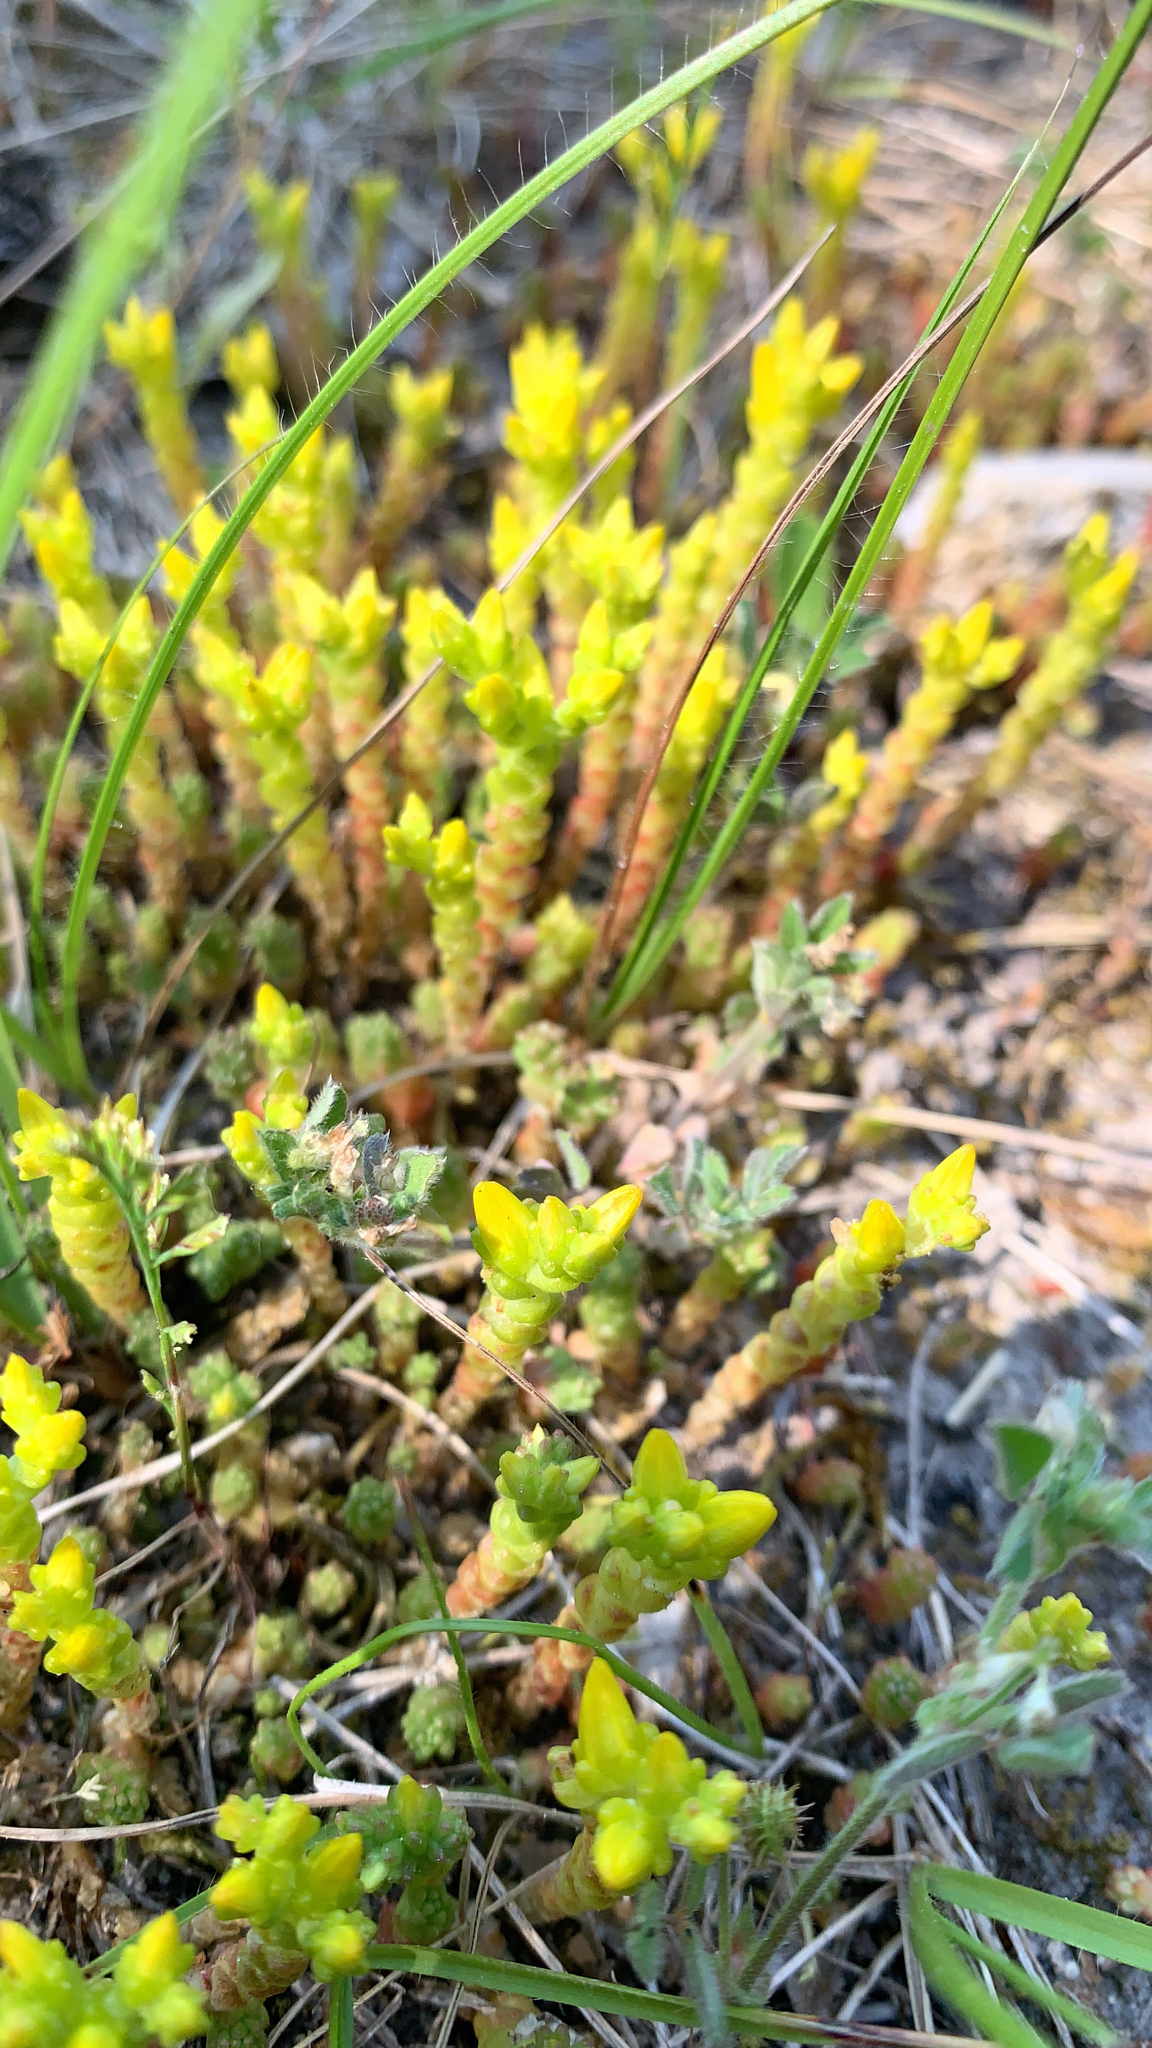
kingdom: Plantae
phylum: Tracheophyta
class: Magnoliopsida
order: Saxifragales
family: Crassulaceae
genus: Sedum
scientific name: Sedum acre
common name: Biting stonecrop
